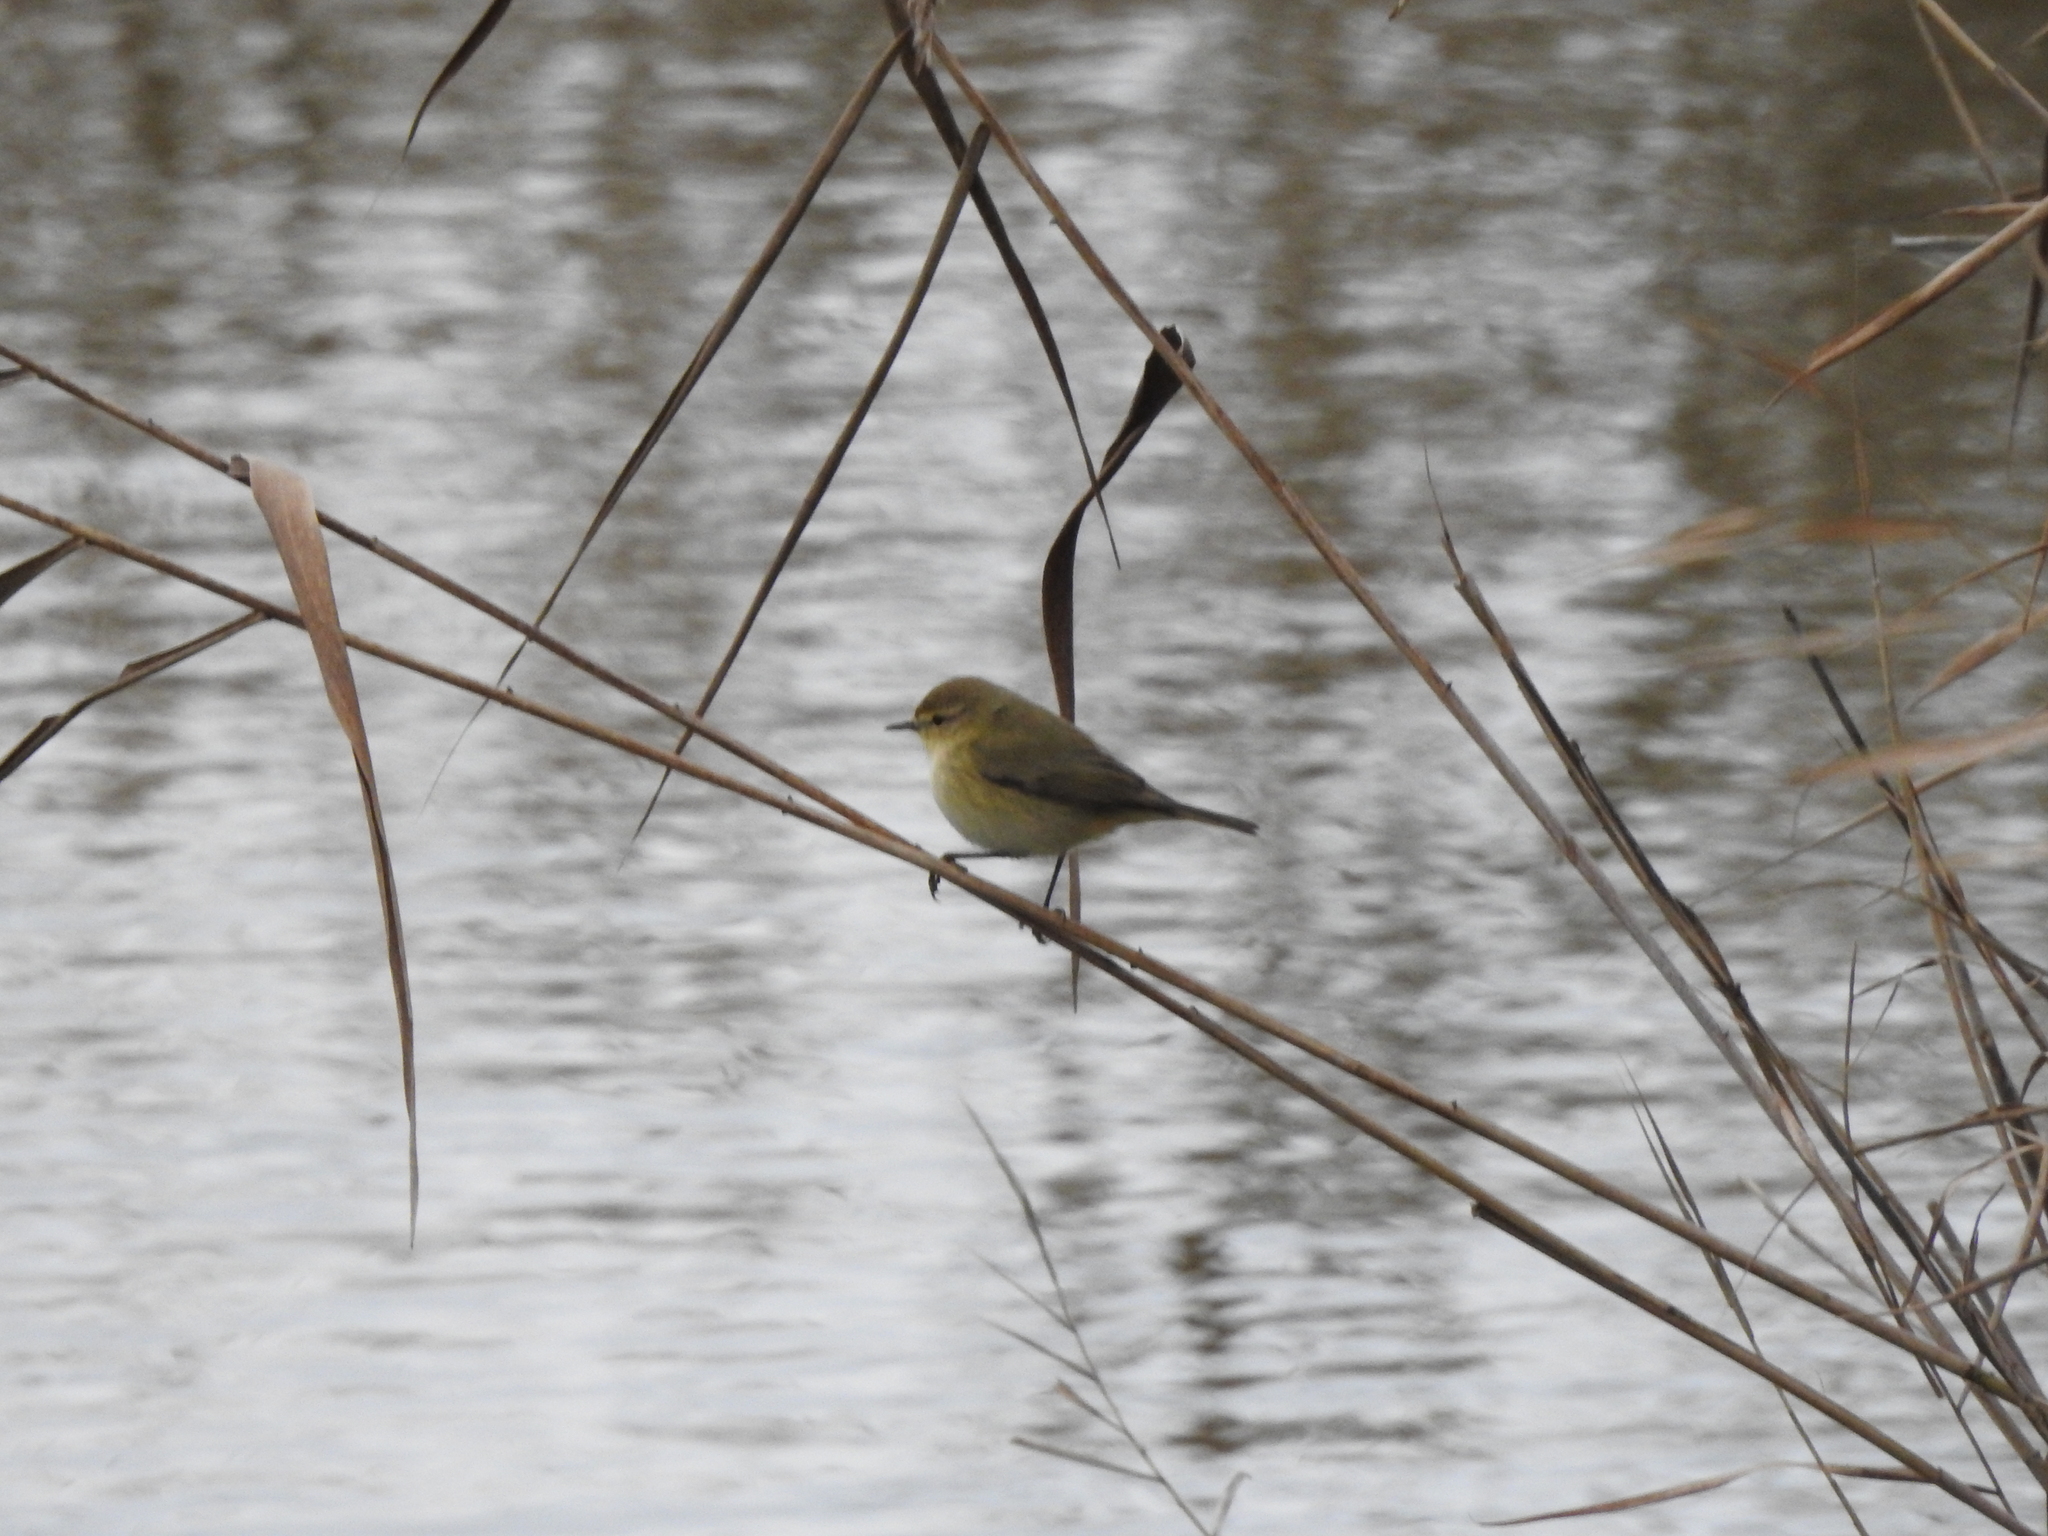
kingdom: Animalia
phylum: Chordata
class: Aves
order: Passeriformes
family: Phylloscopidae
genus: Phylloscopus
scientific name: Phylloscopus collybita
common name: Common chiffchaff
